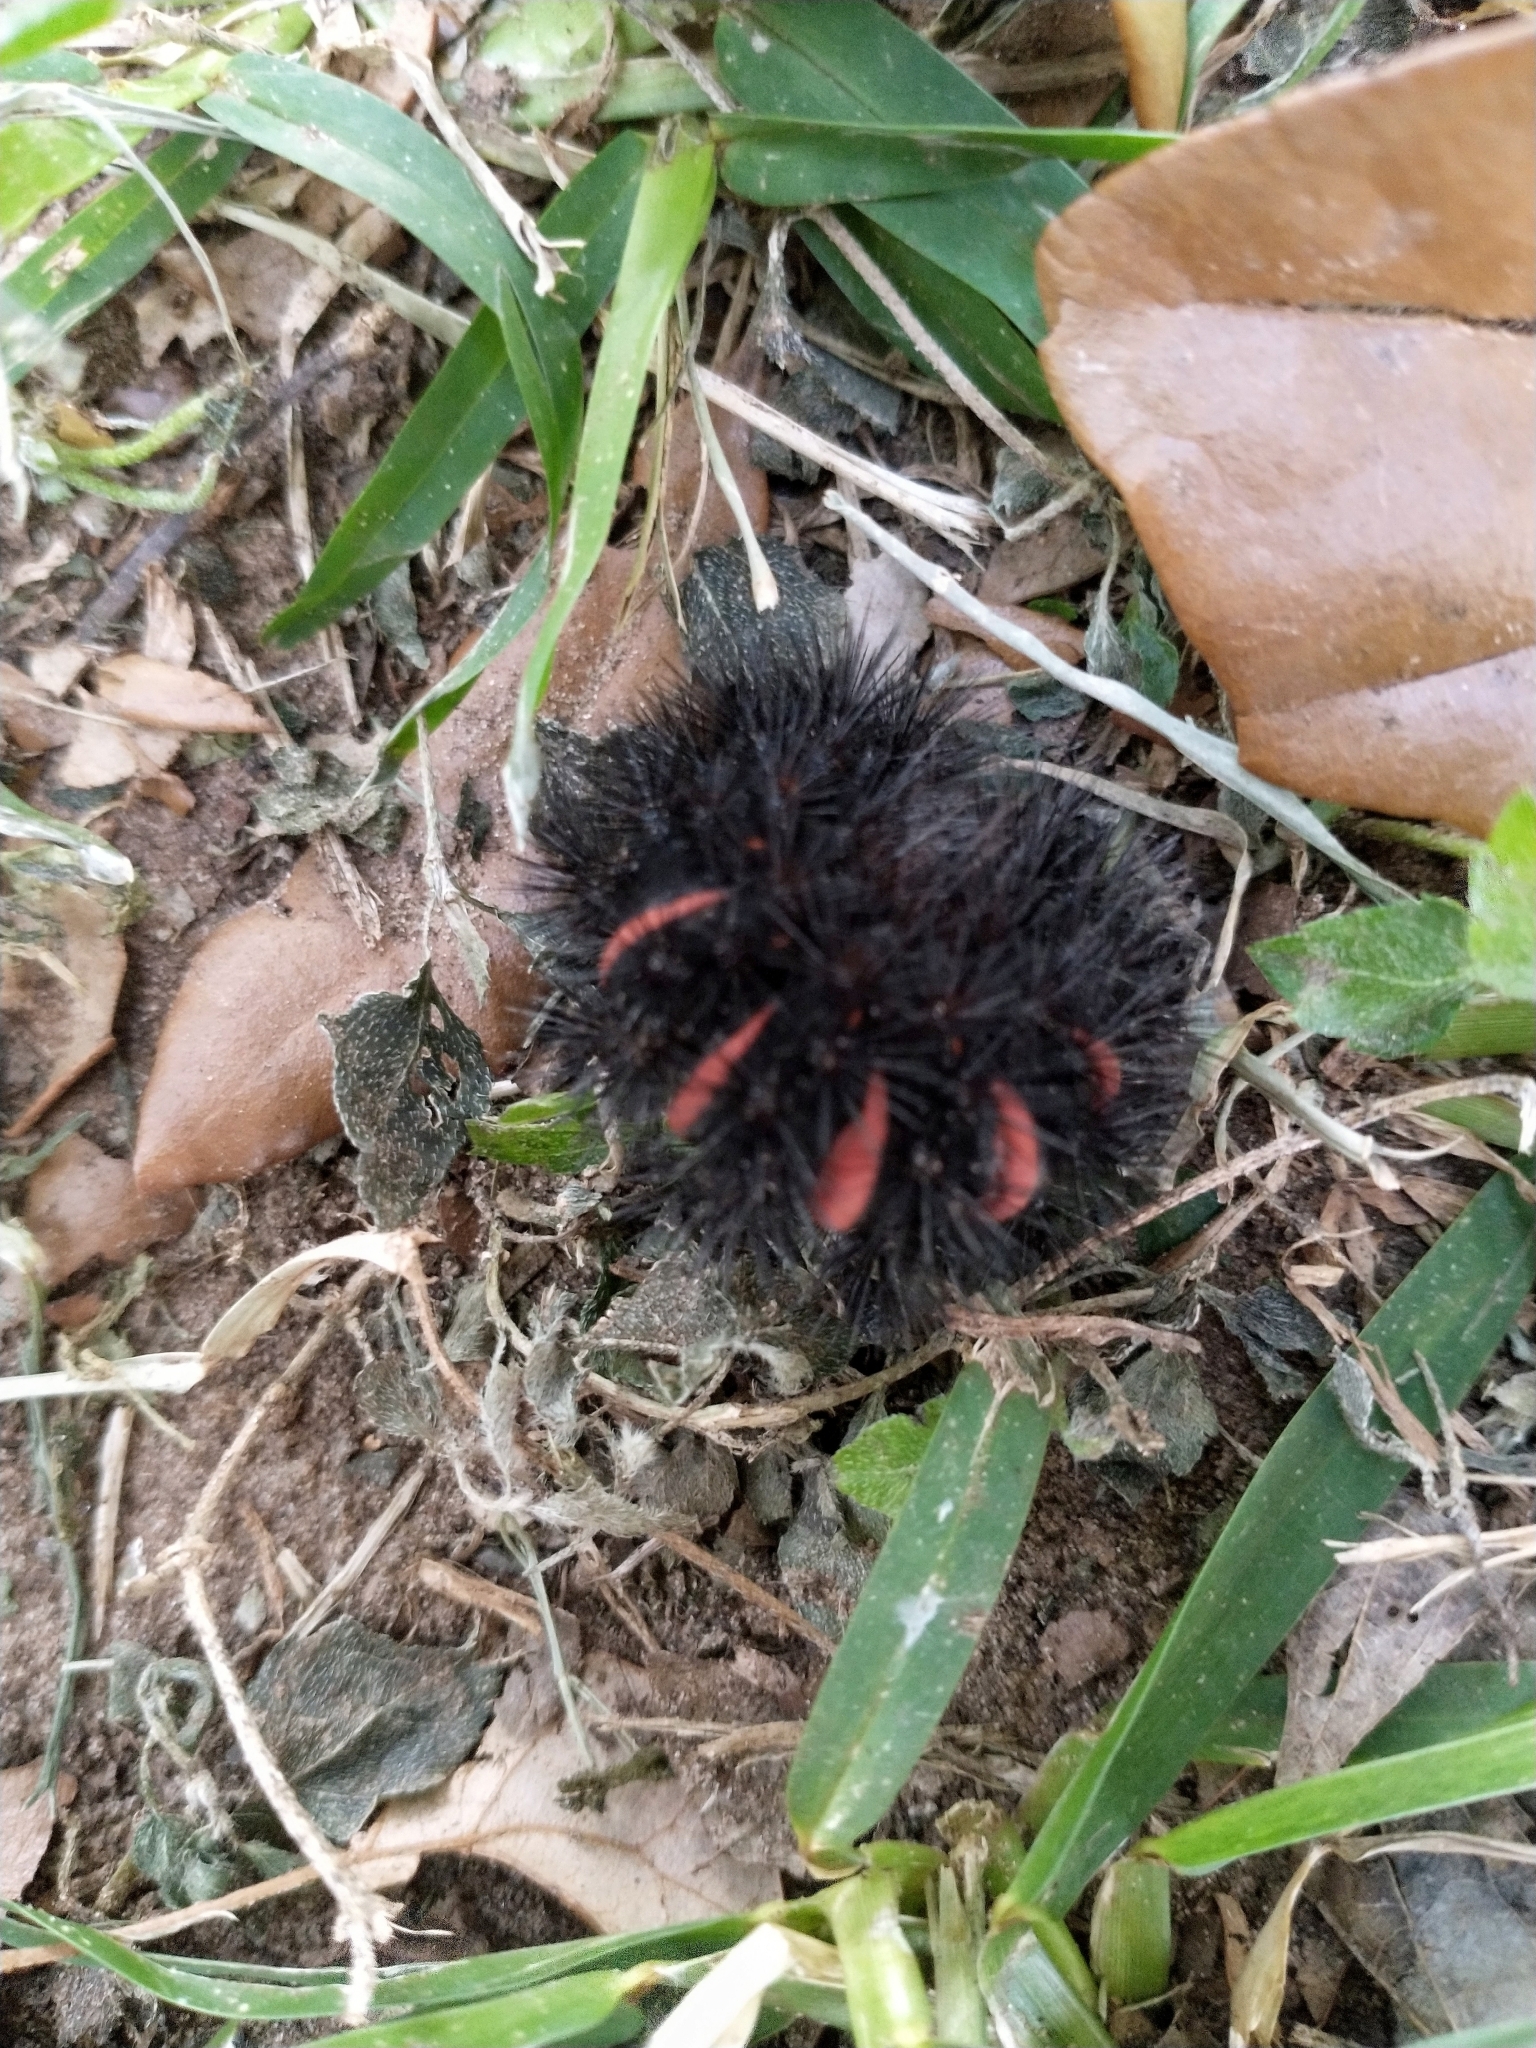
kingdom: Animalia
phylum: Arthropoda
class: Insecta
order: Lepidoptera
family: Erebidae
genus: Hypercompe
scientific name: Hypercompe scribonia
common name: Giant leopard moth
